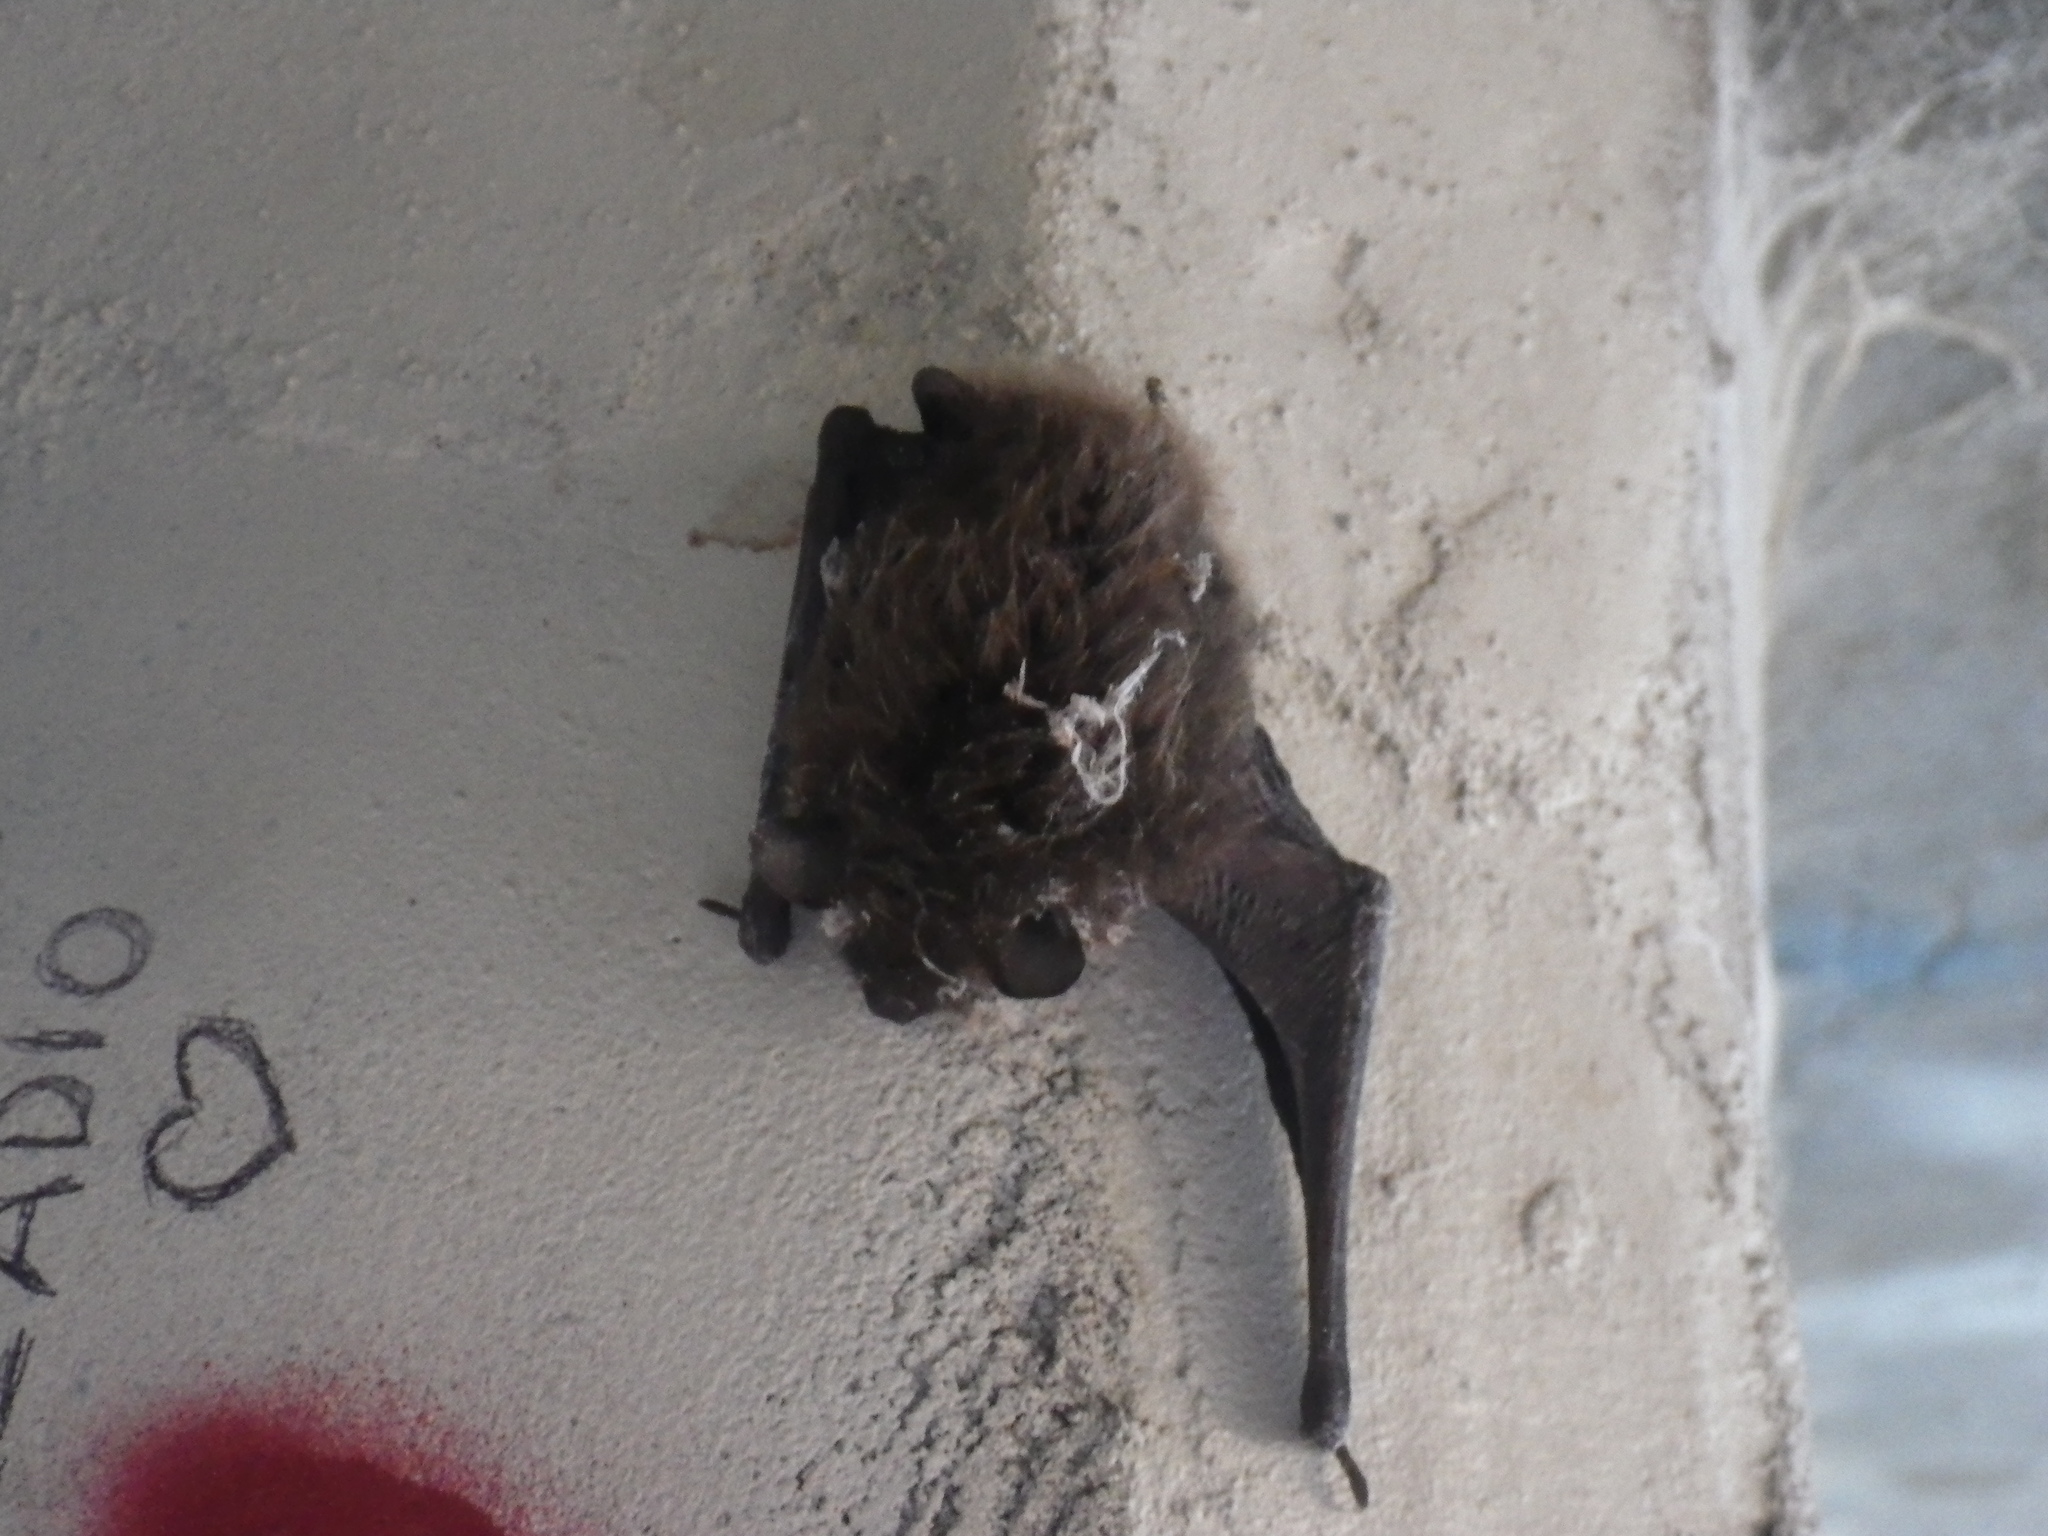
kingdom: Animalia
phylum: Chordata
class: Mammalia
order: Chiroptera
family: Vespertilionidae
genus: Myotis
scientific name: Myotis lucifugus
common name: Little brown bat
